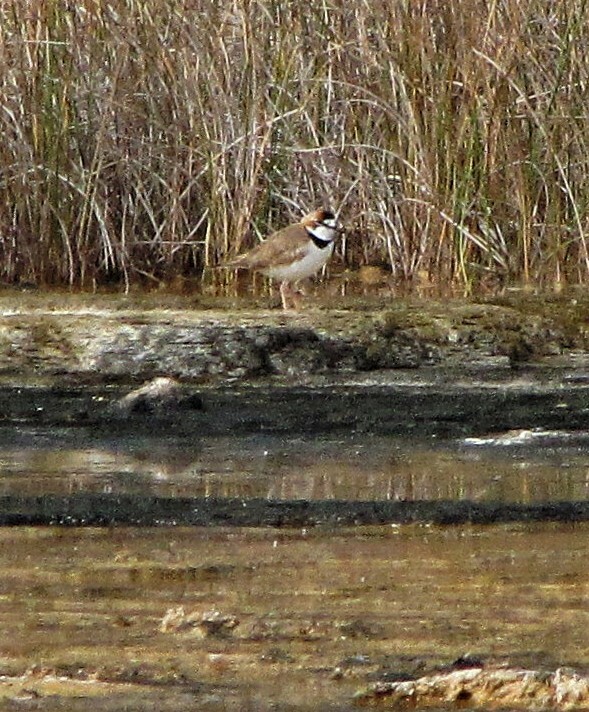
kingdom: Animalia
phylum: Chordata
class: Aves
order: Charadriiformes
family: Charadriidae
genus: Anarhynchus
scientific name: Anarhynchus
